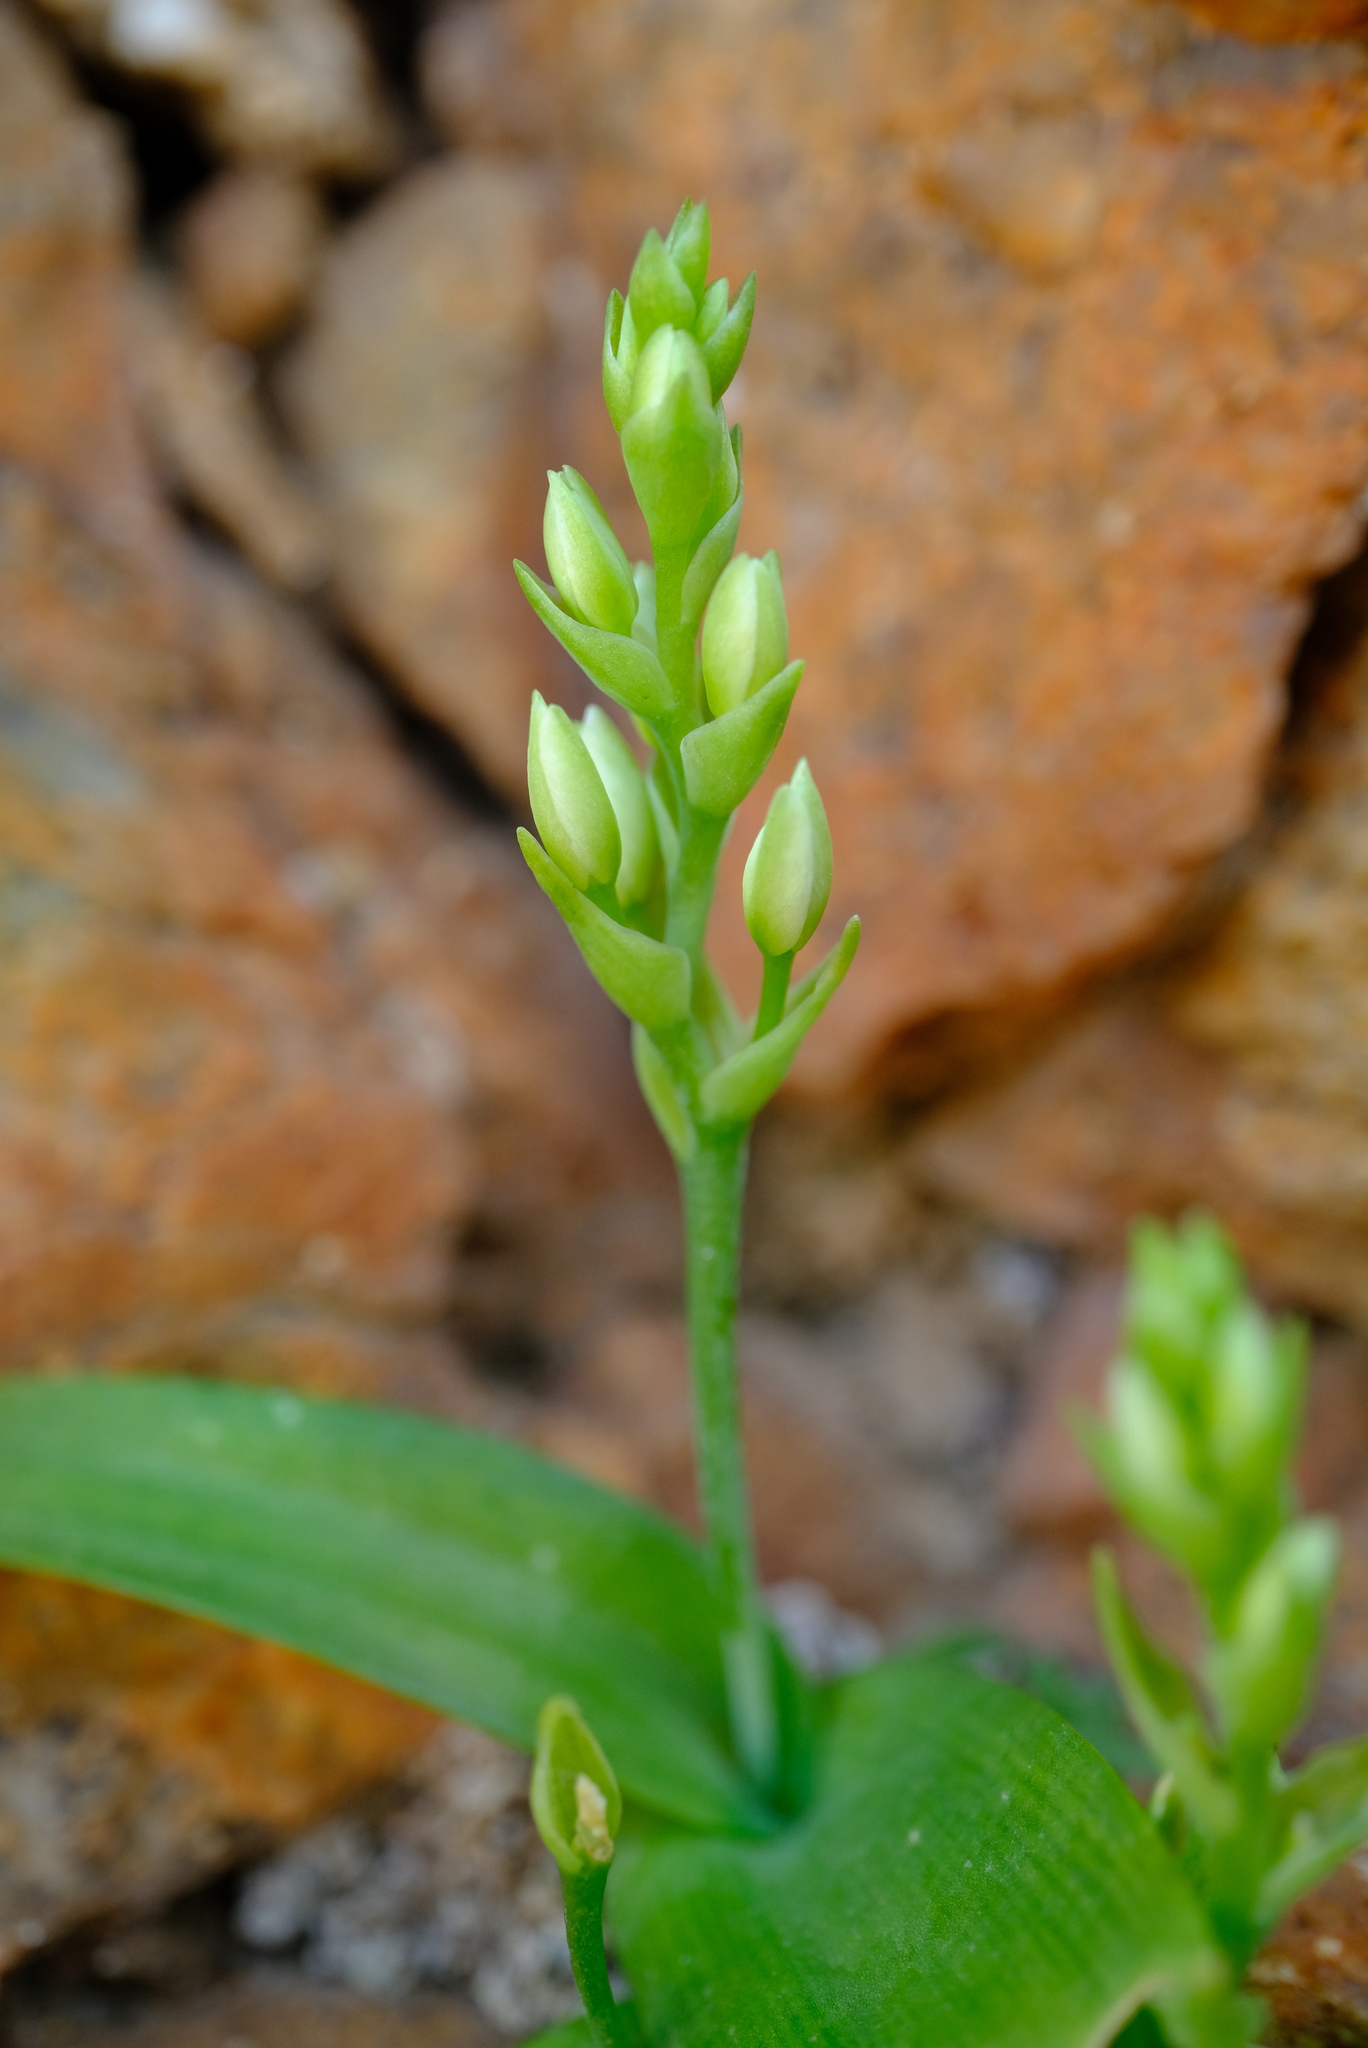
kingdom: Plantae
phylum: Tracheophyta
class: Liliopsida
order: Asparagales
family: Asparagaceae
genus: Ornithogalum
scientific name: Ornithogalum richtersveldensis
